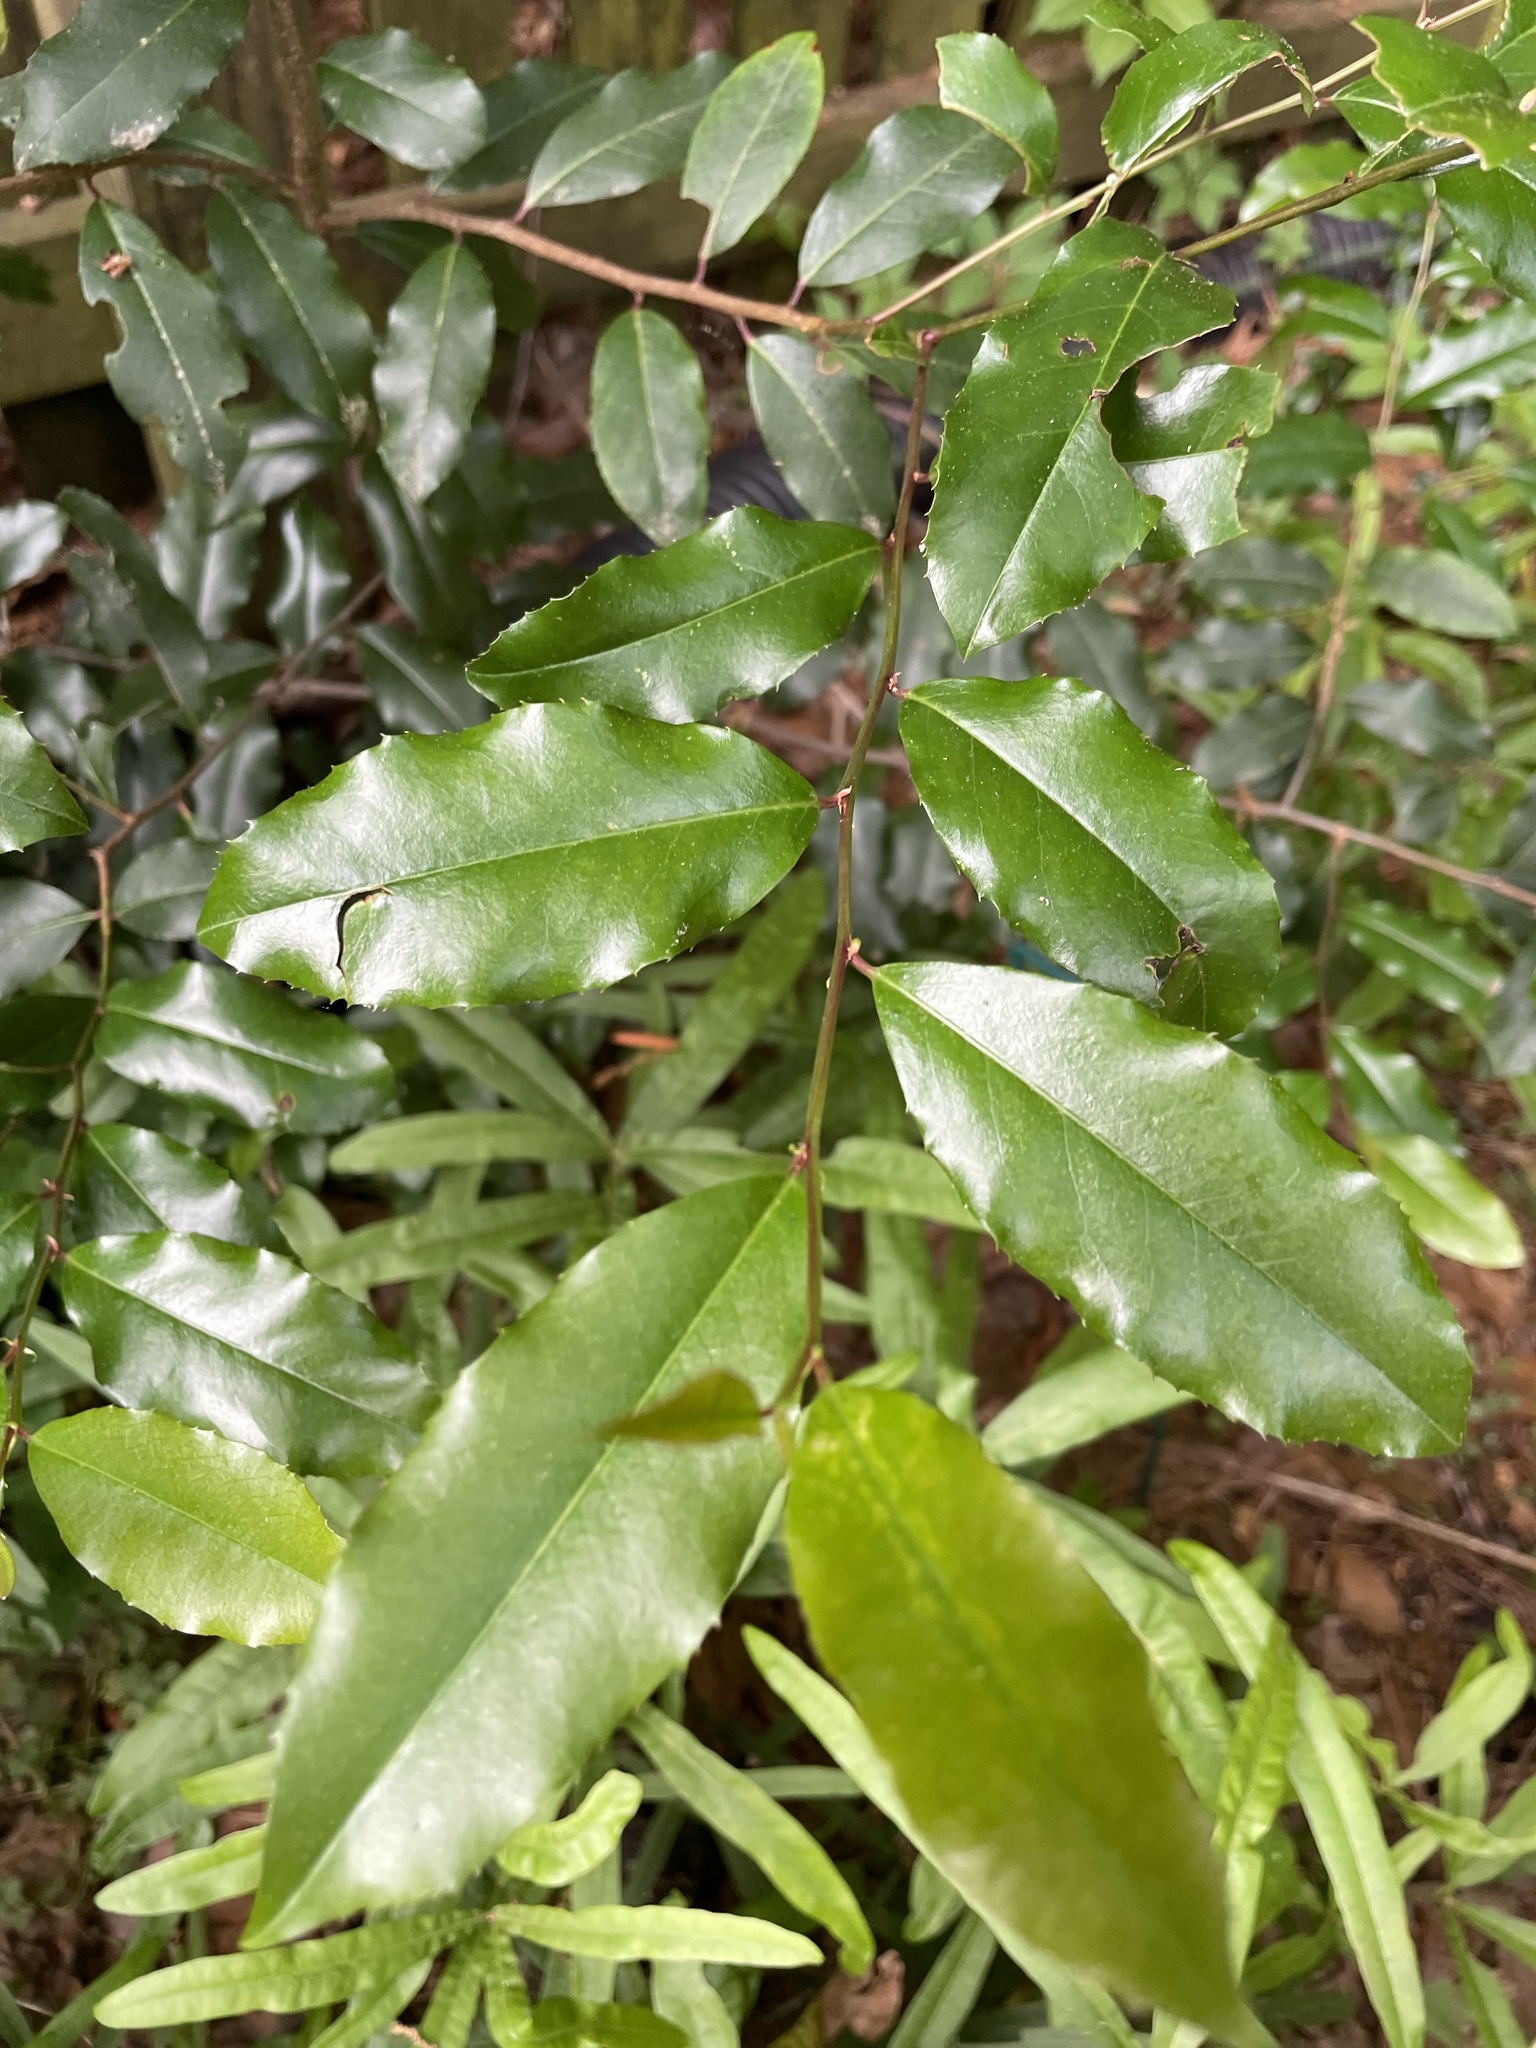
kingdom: Plantae
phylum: Tracheophyta
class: Magnoliopsida
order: Rosales
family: Rosaceae
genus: Prunus
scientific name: Prunus caroliniana
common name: Carolina laurel cherry
